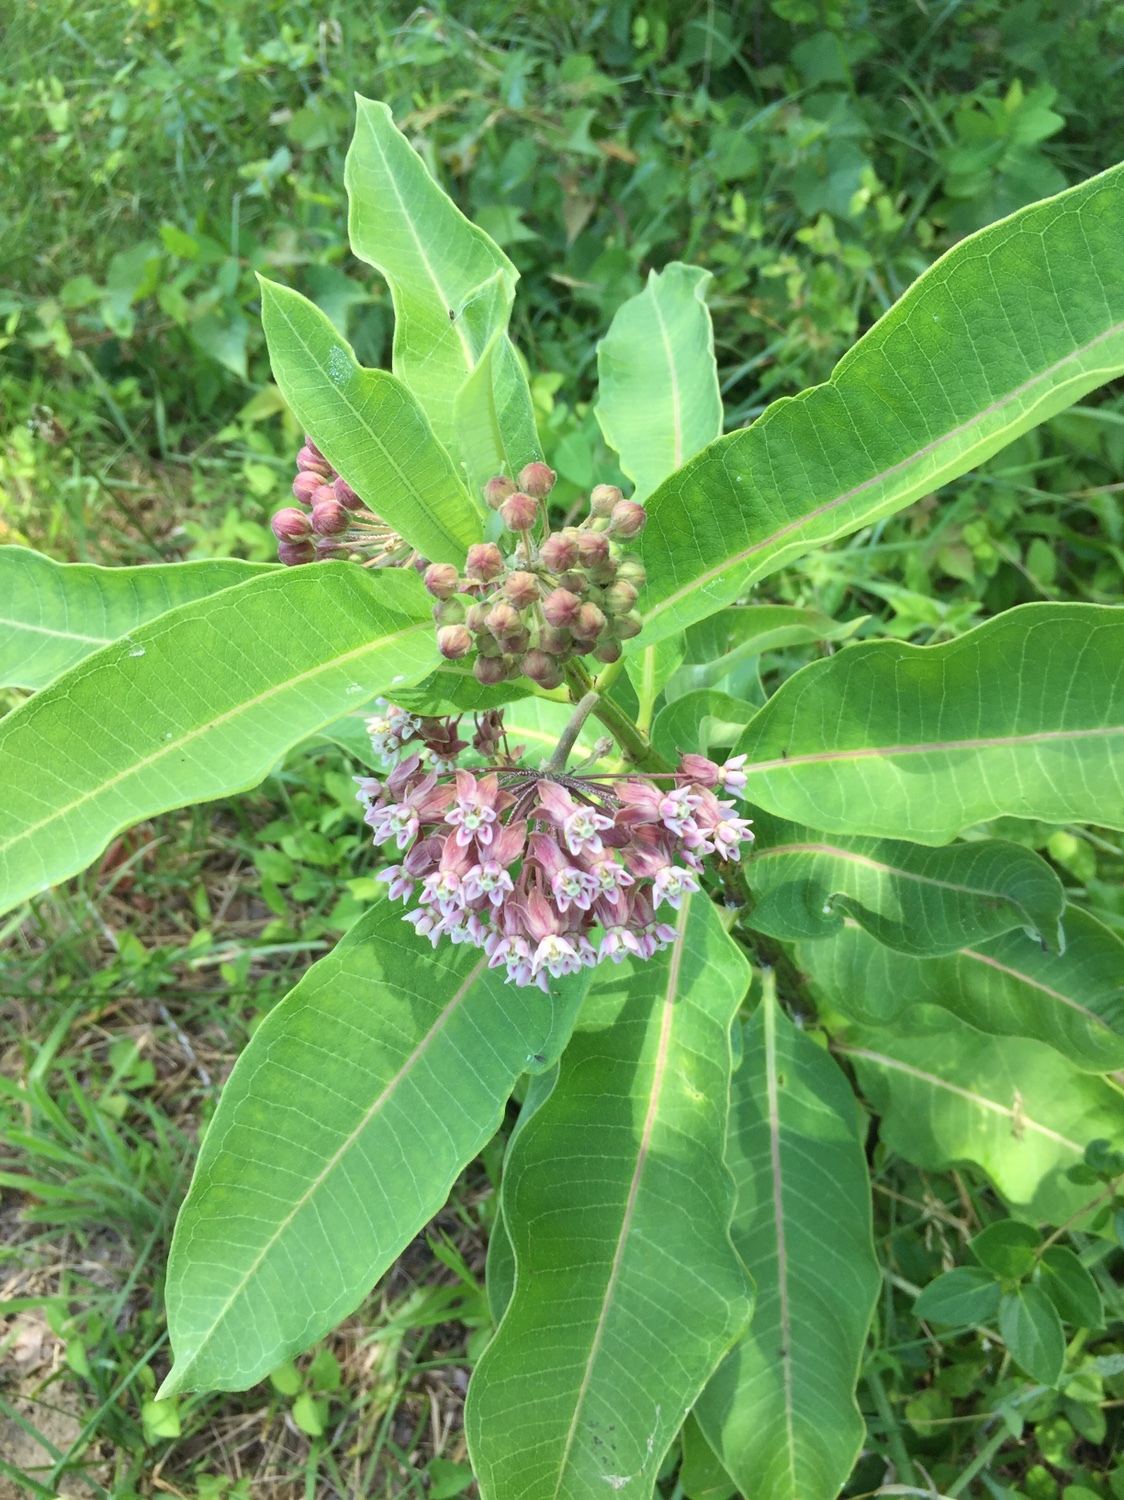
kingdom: Plantae
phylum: Tracheophyta
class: Magnoliopsida
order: Gentianales
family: Apocynaceae
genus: Asclepias
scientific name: Asclepias syriaca
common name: Common milkweed
